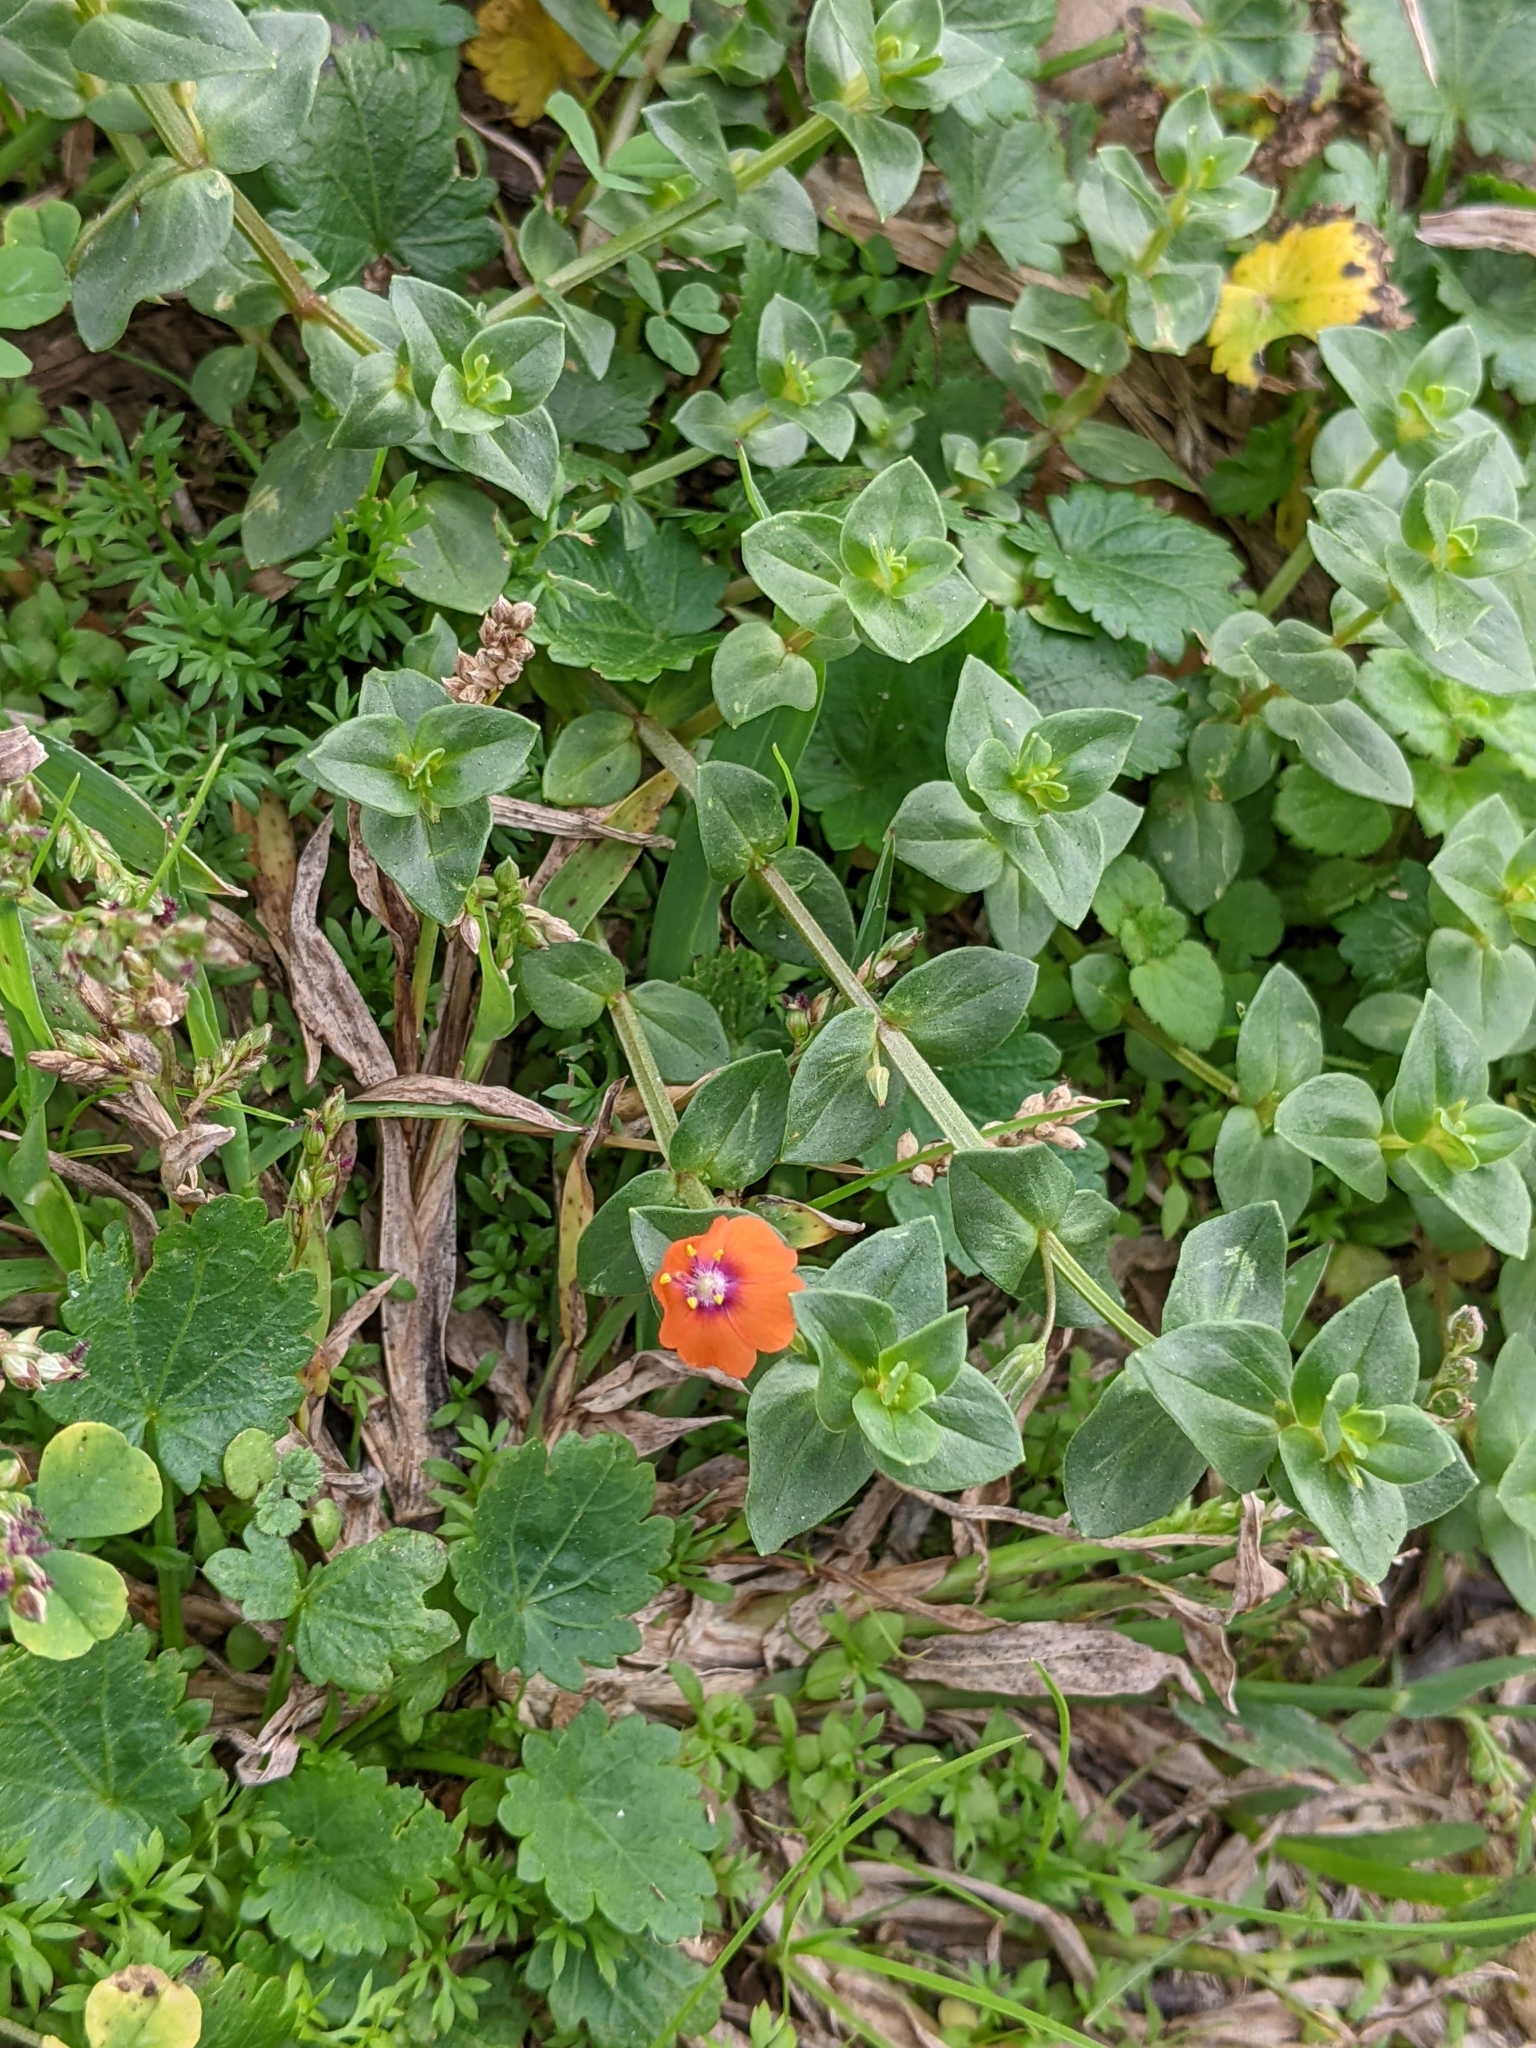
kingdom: Plantae
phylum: Tracheophyta
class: Magnoliopsida
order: Ericales
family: Primulaceae
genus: Lysimachia
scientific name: Lysimachia arvensis
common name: Scarlet pimpernel
